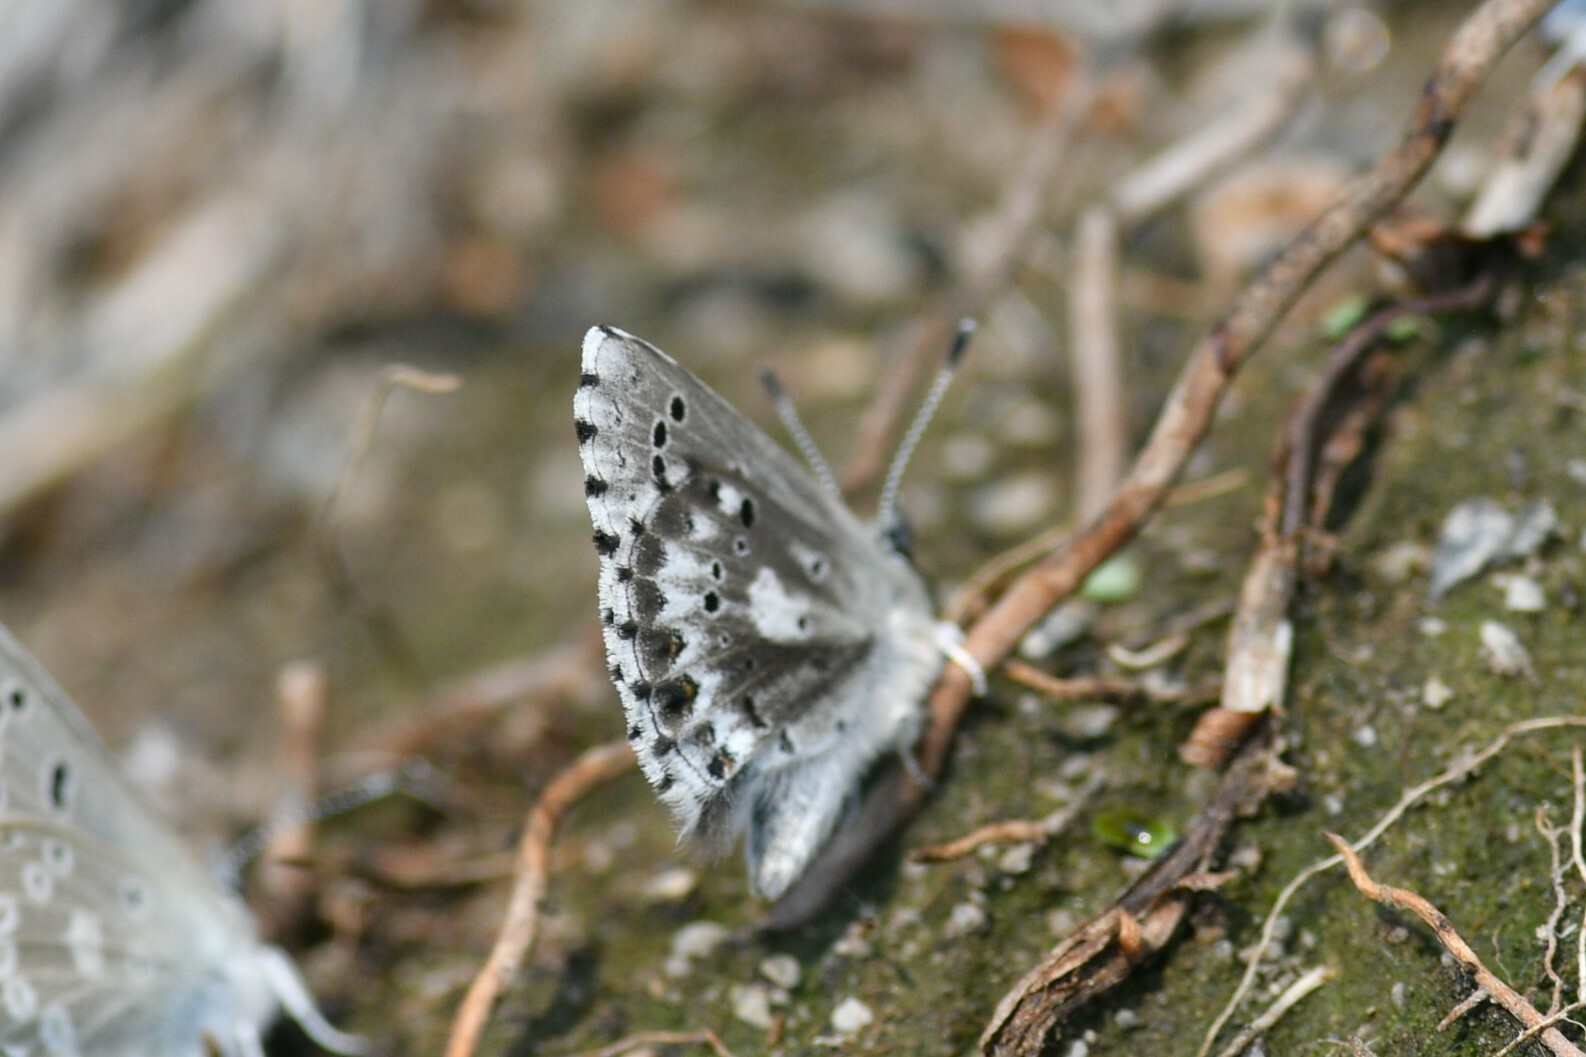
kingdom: Animalia
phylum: Arthropoda
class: Insecta
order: Lepidoptera
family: Lycaenidae
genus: Glaucopsyche
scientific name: Glaucopsyche piasus
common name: Arrowhead blue
